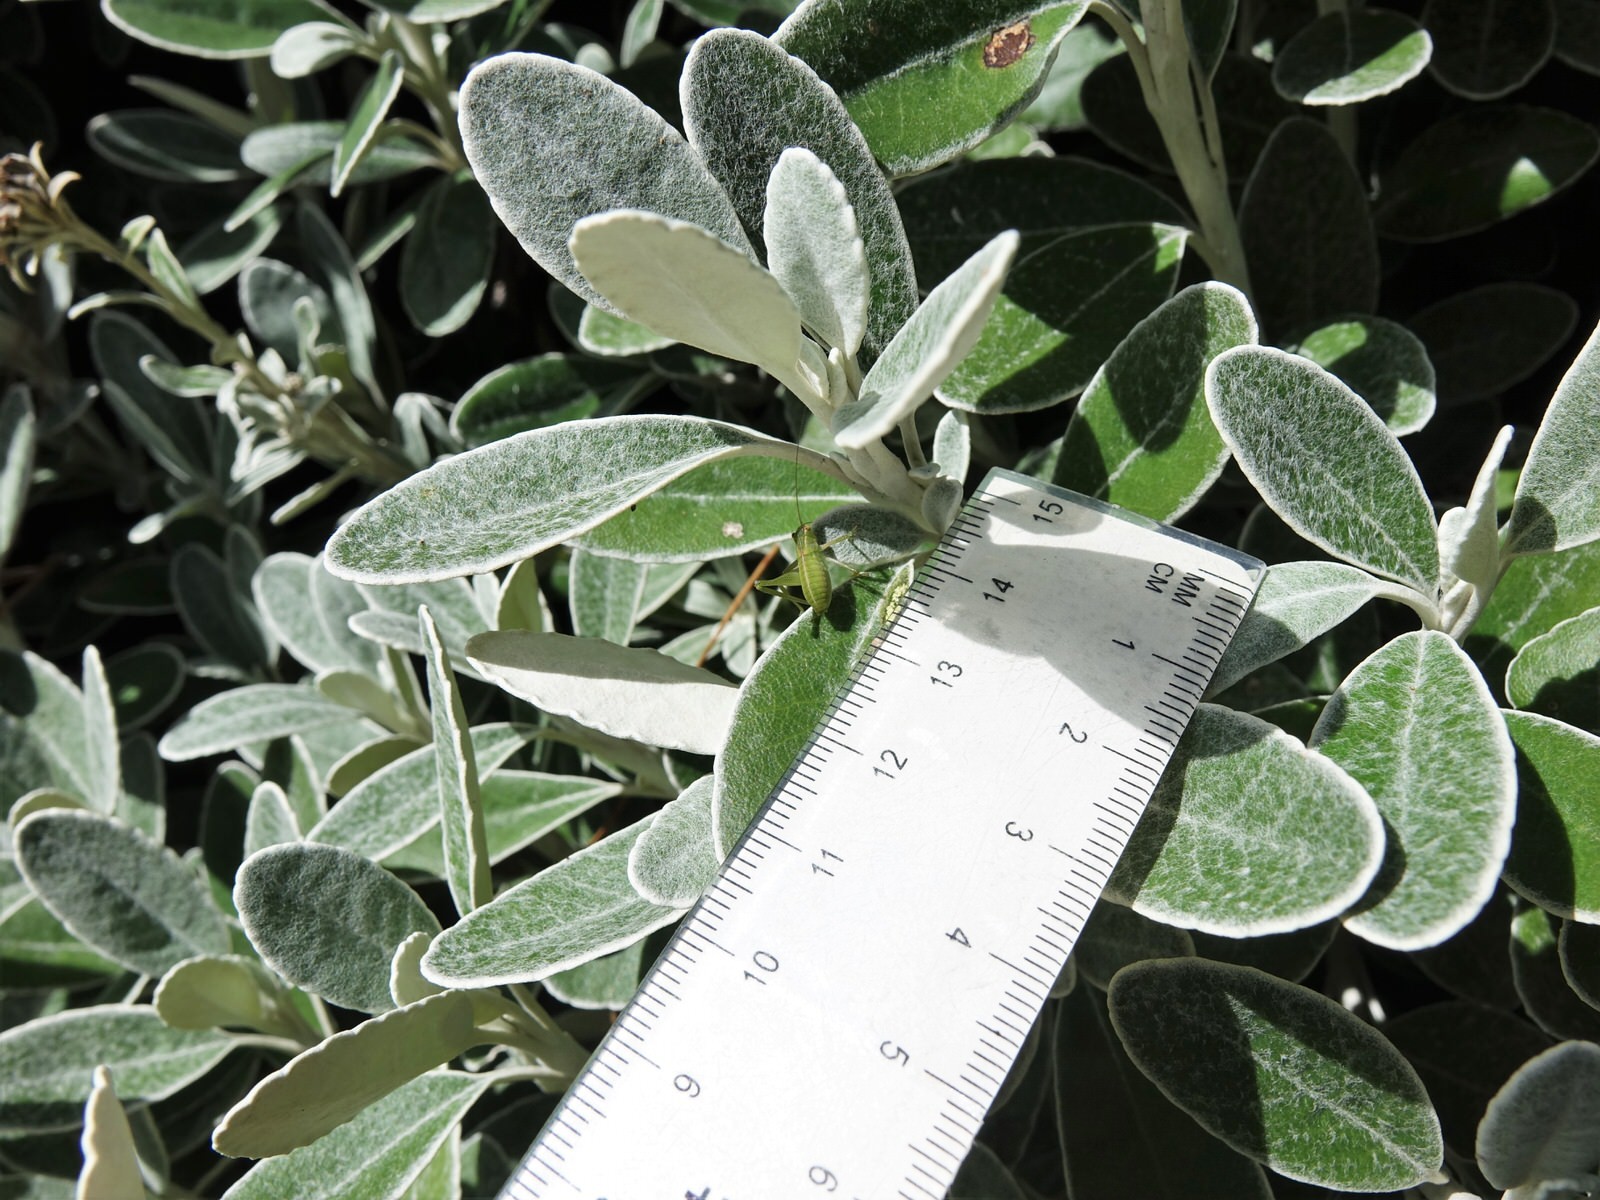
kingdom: Animalia
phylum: Arthropoda
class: Insecta
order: Orthoptera
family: Tettigoniidae
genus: Caedicia
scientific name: Caedicia simplex
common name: Common garden katydid
